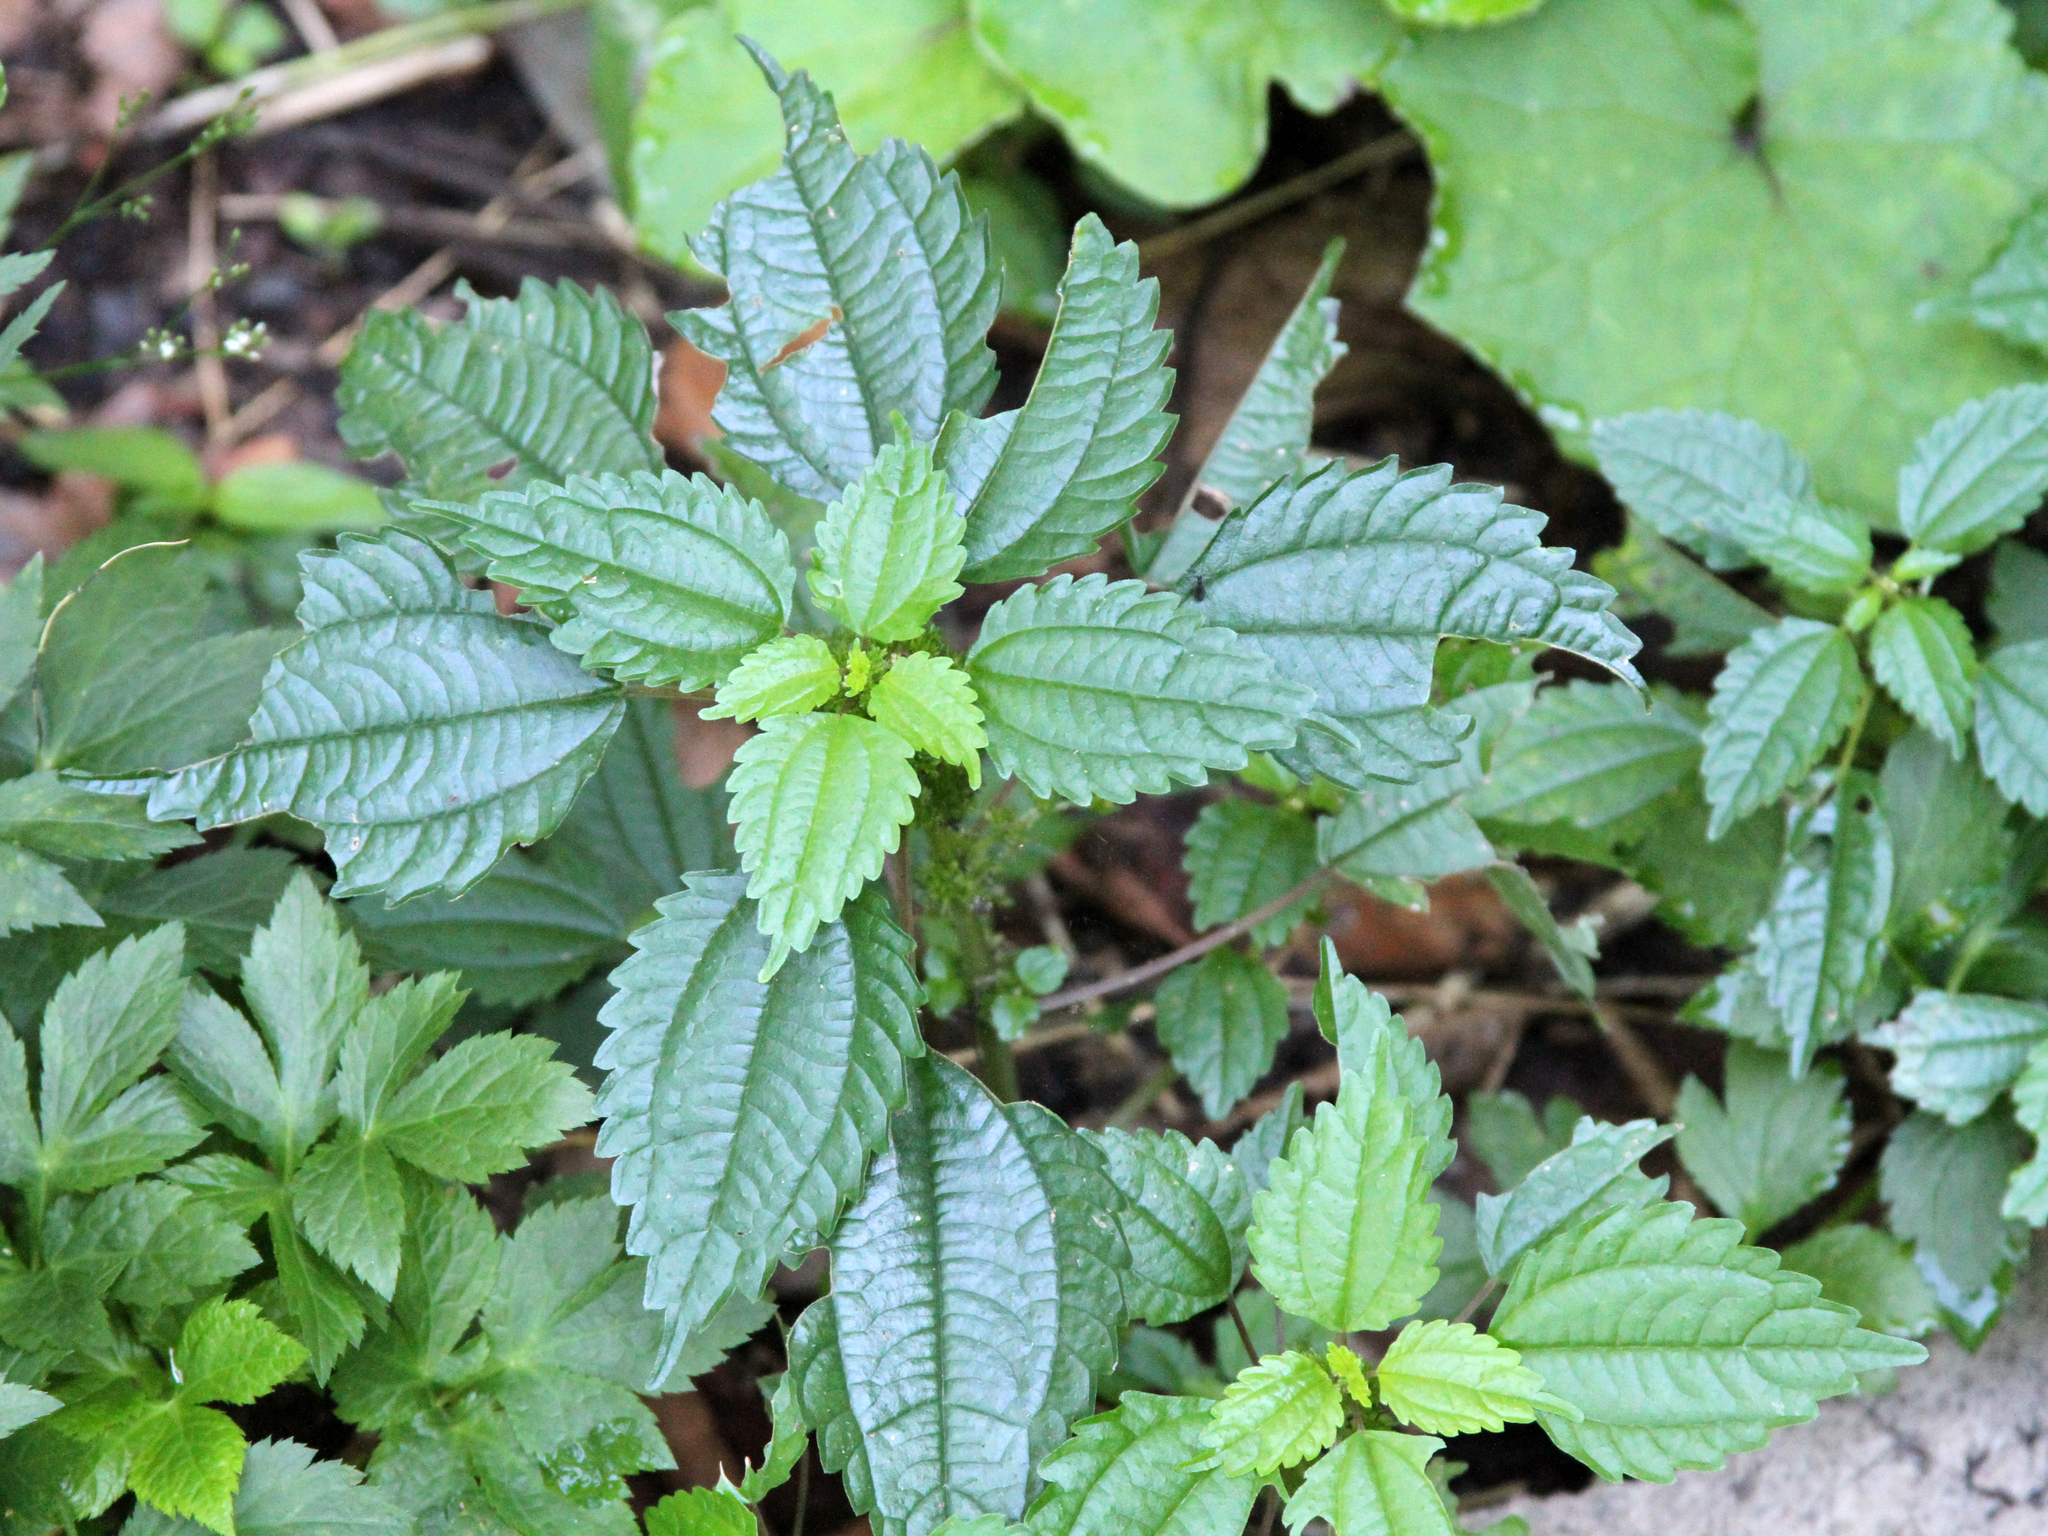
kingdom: Plantae
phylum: Tracheophyta
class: Magnoliopsida
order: Rosales
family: Urticaceae
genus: Pilea
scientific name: Pilea pumila
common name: Clearweed
